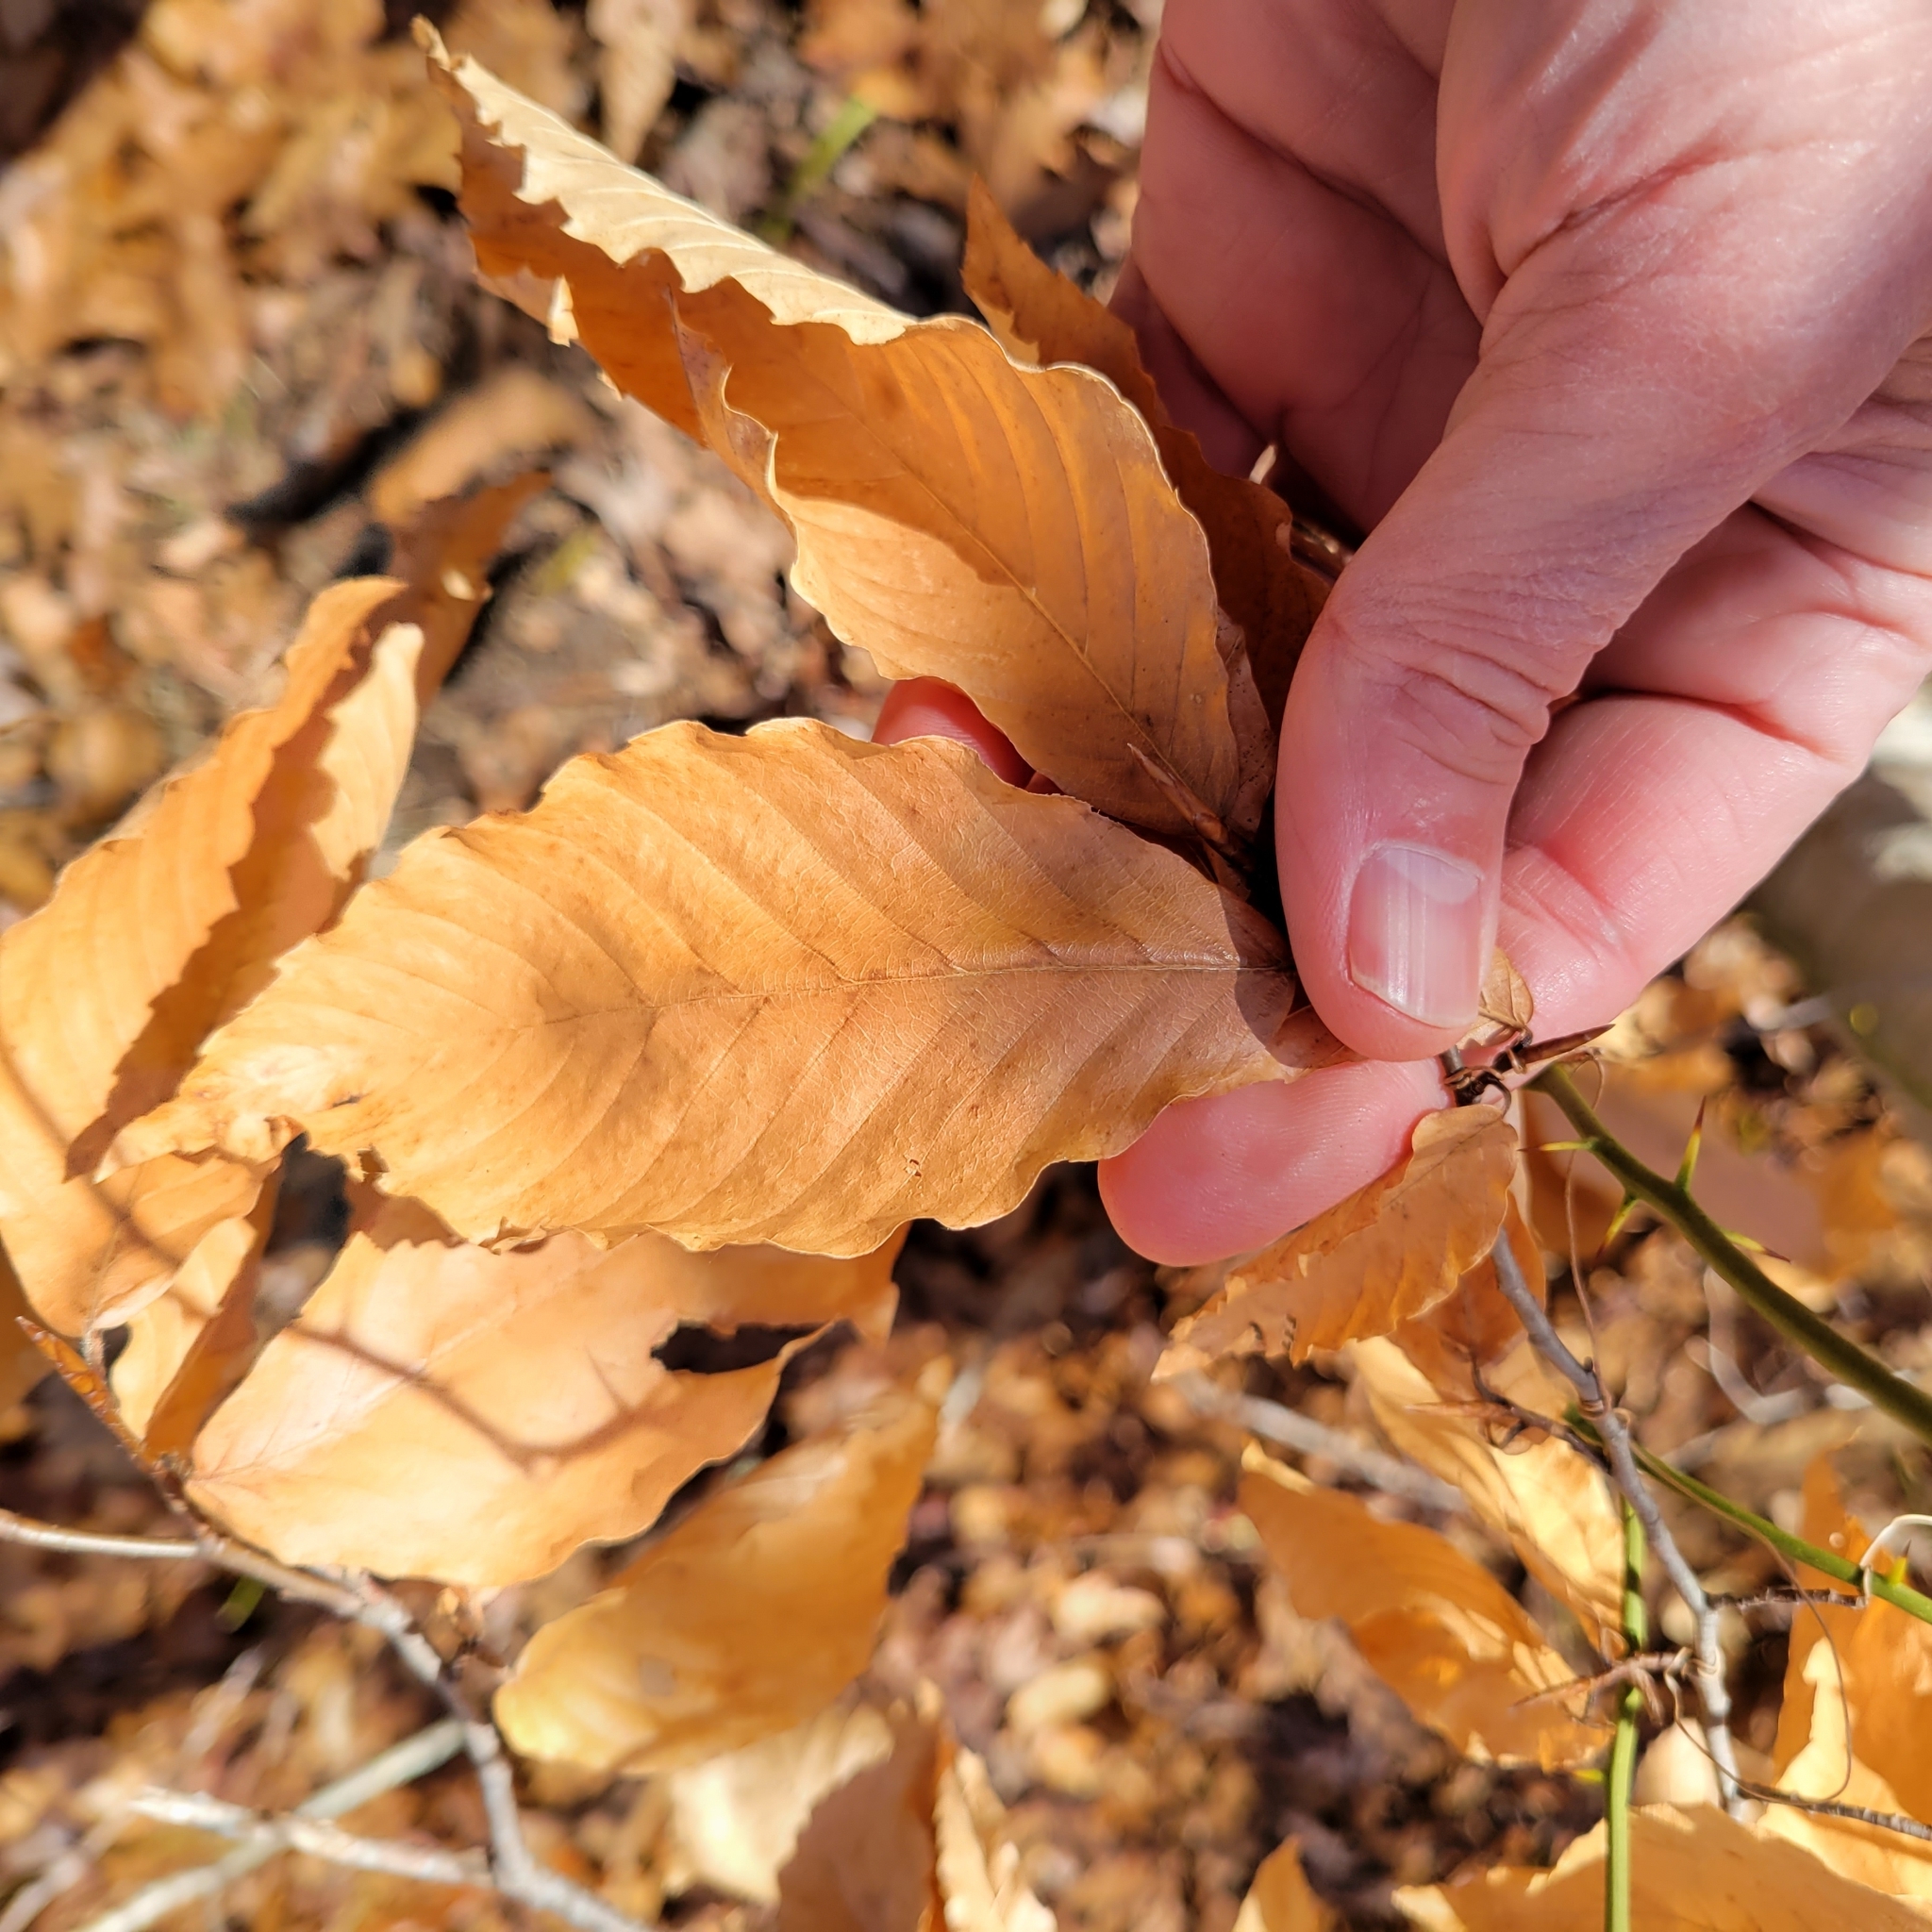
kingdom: Plantae
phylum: Tracheophyta
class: Magnoliopsida
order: Fagales
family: Fagaceae
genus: Fagus
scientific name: Fagus grandifolia
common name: American beech
